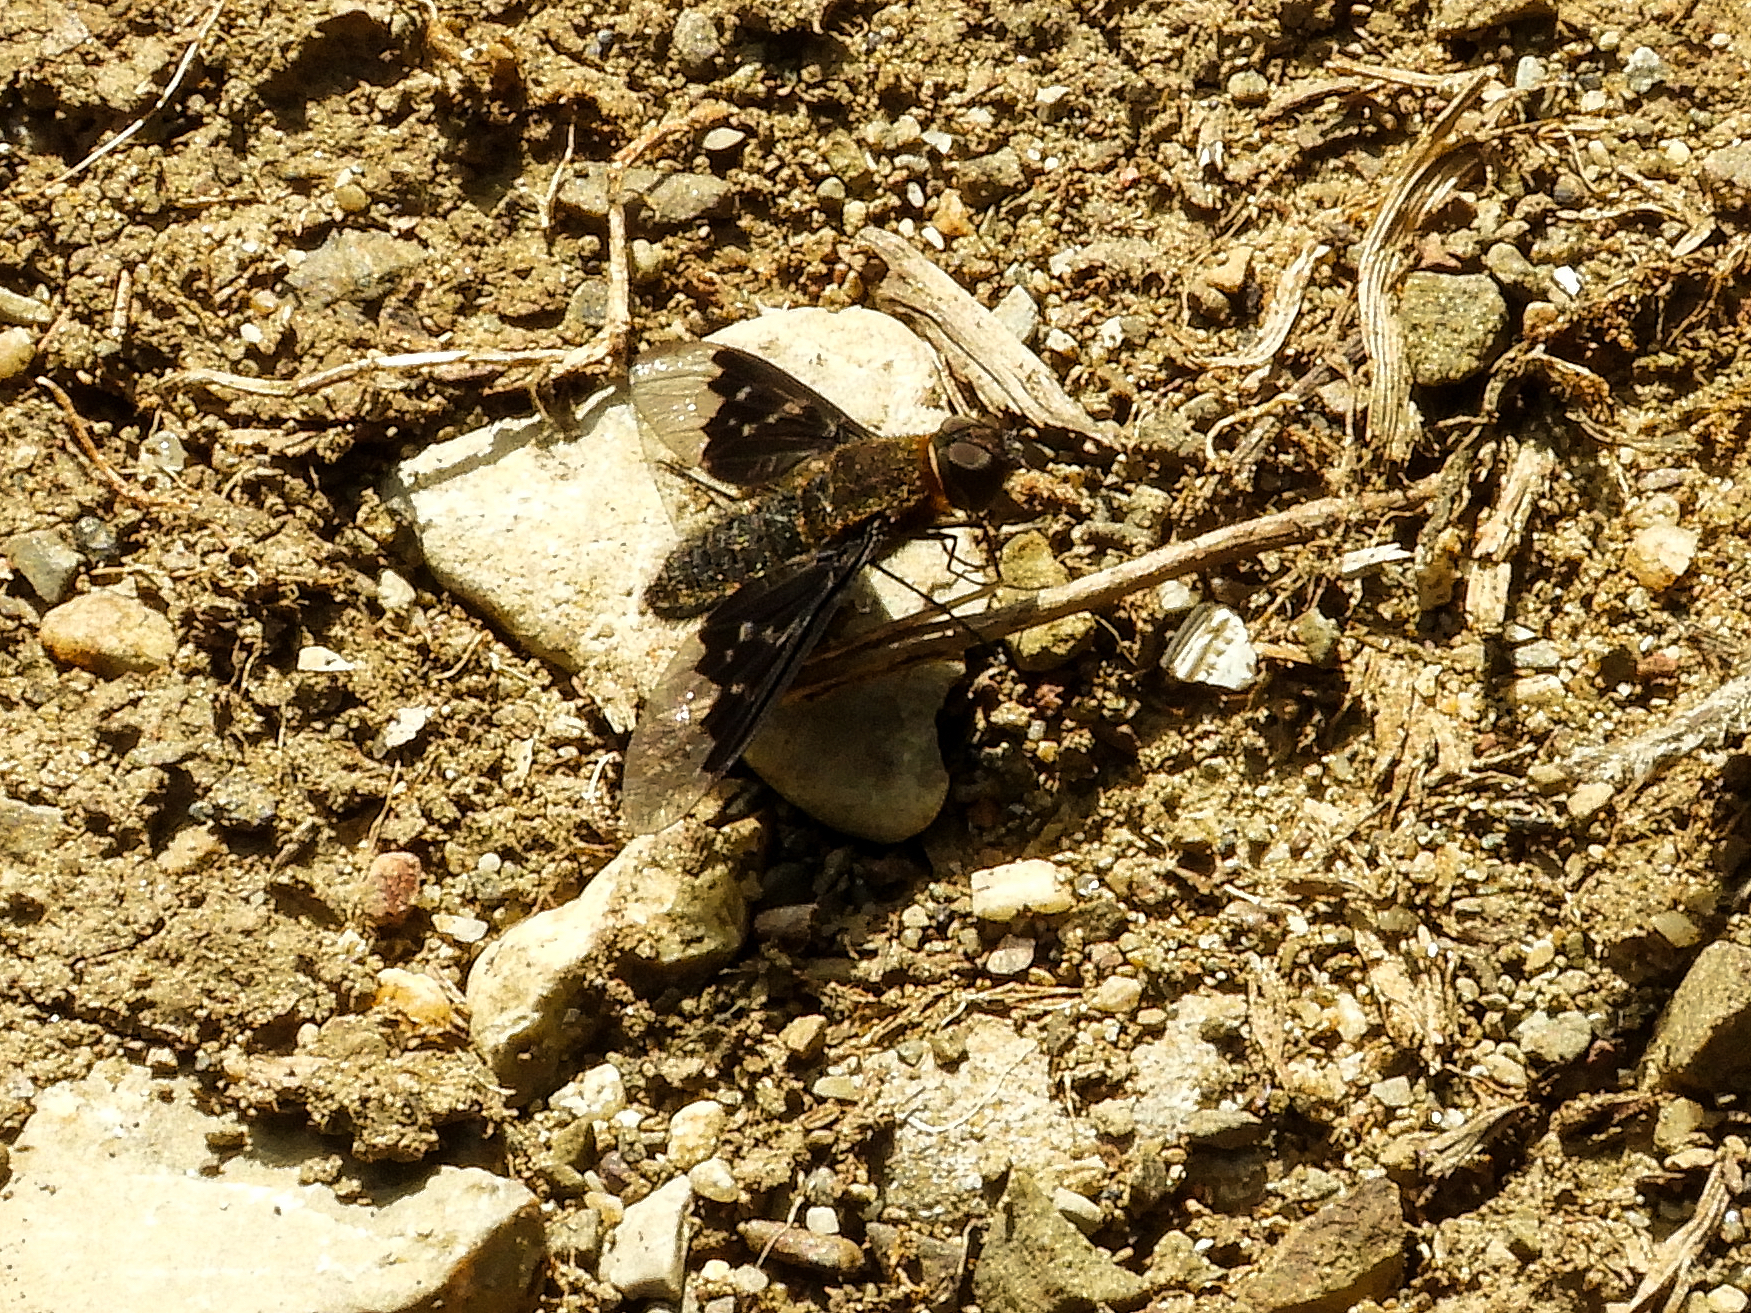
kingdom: Animalia
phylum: Arthropoda
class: Insecta
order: Diptera
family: Bombyliidae
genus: Hemipenthes
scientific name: Hemipenthes morio
